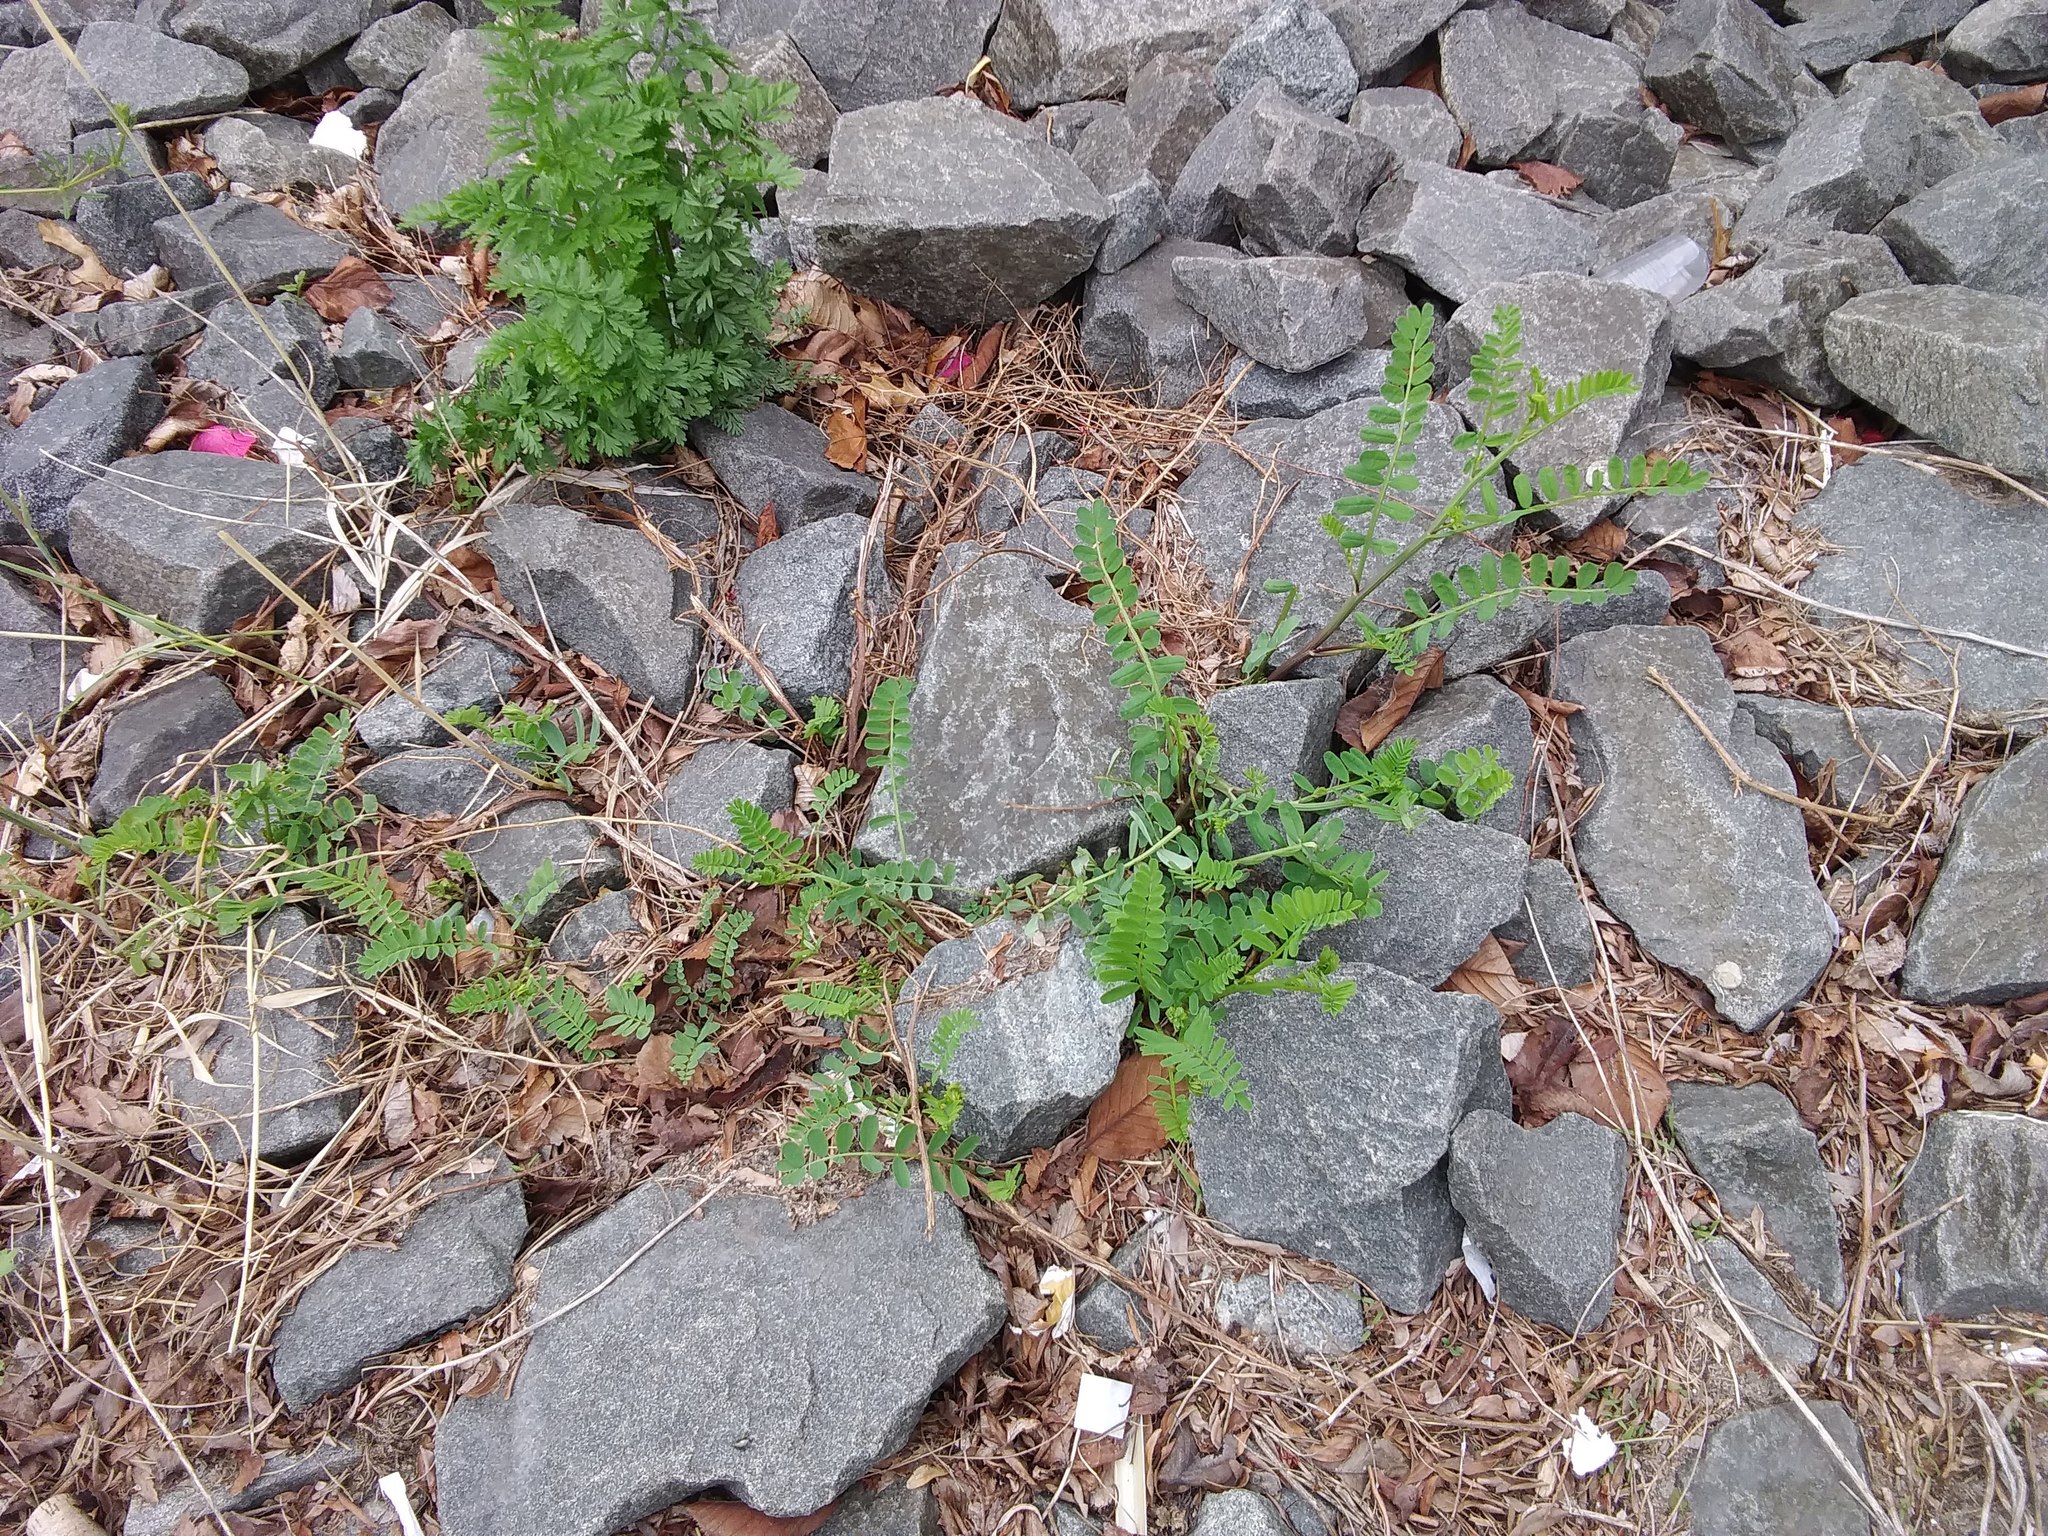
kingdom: Plantae
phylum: Tracheophyta
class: Magnoliopsida
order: Fabales
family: Fabaceae
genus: Coronilla
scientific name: Coronilla varia
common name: Crownvetch
